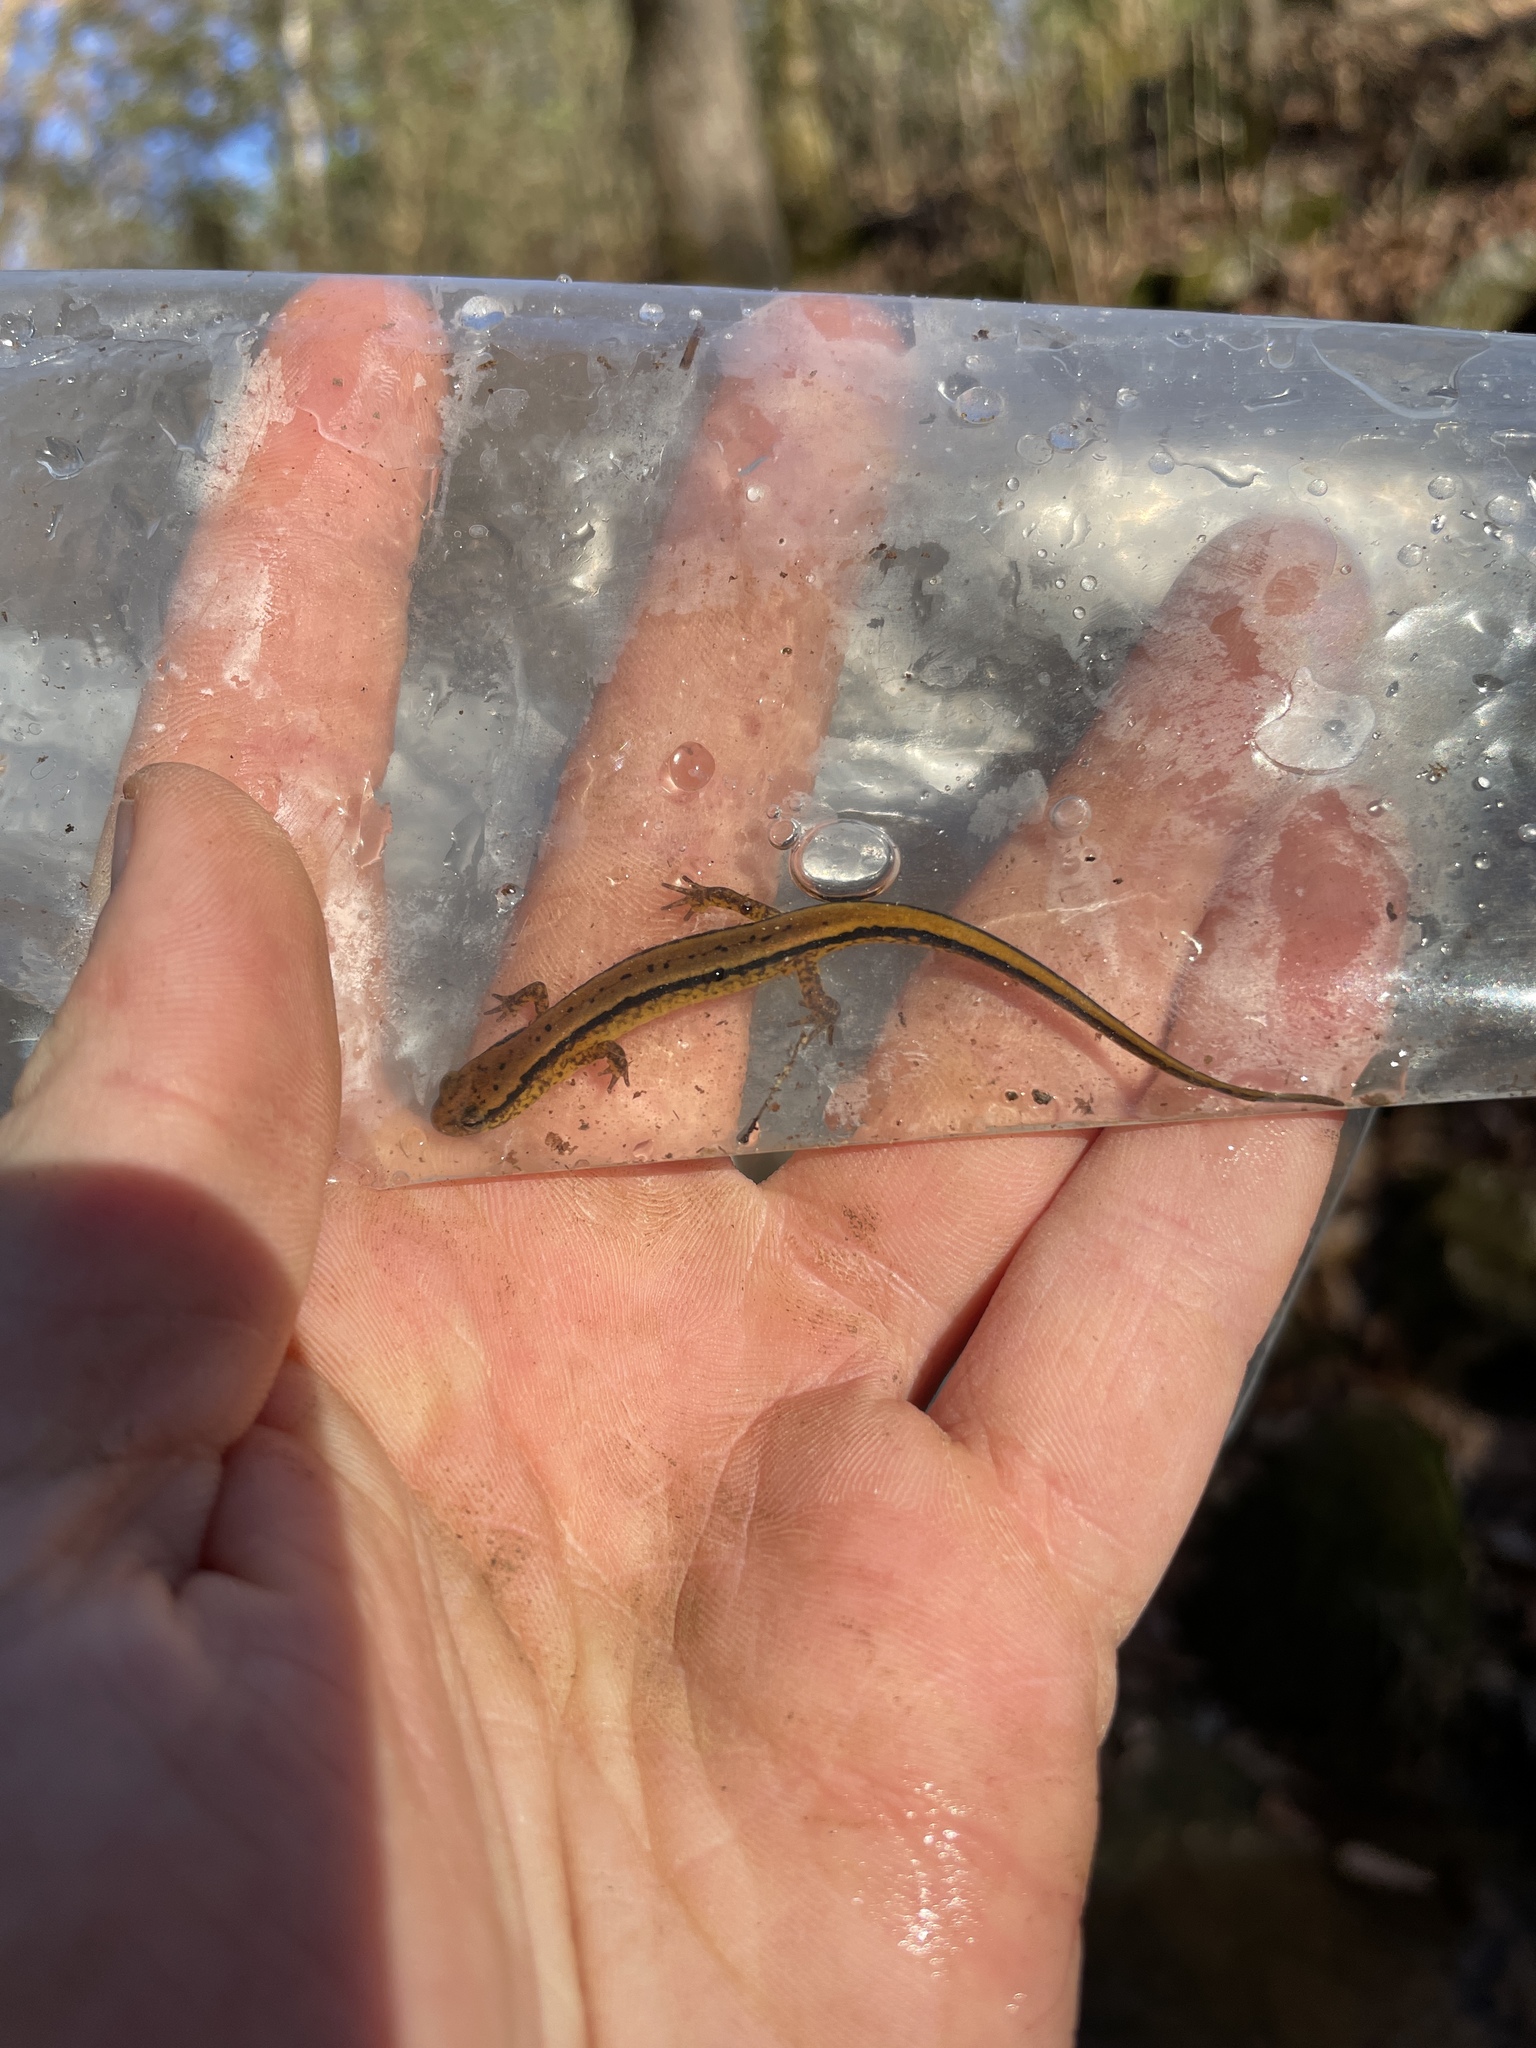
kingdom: Animalia
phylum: Chordata
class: Amphibia
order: Caudata
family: Plethodontidae
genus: Eurycea
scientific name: Eurycea cirrigera
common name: Southern two-lined salamander
